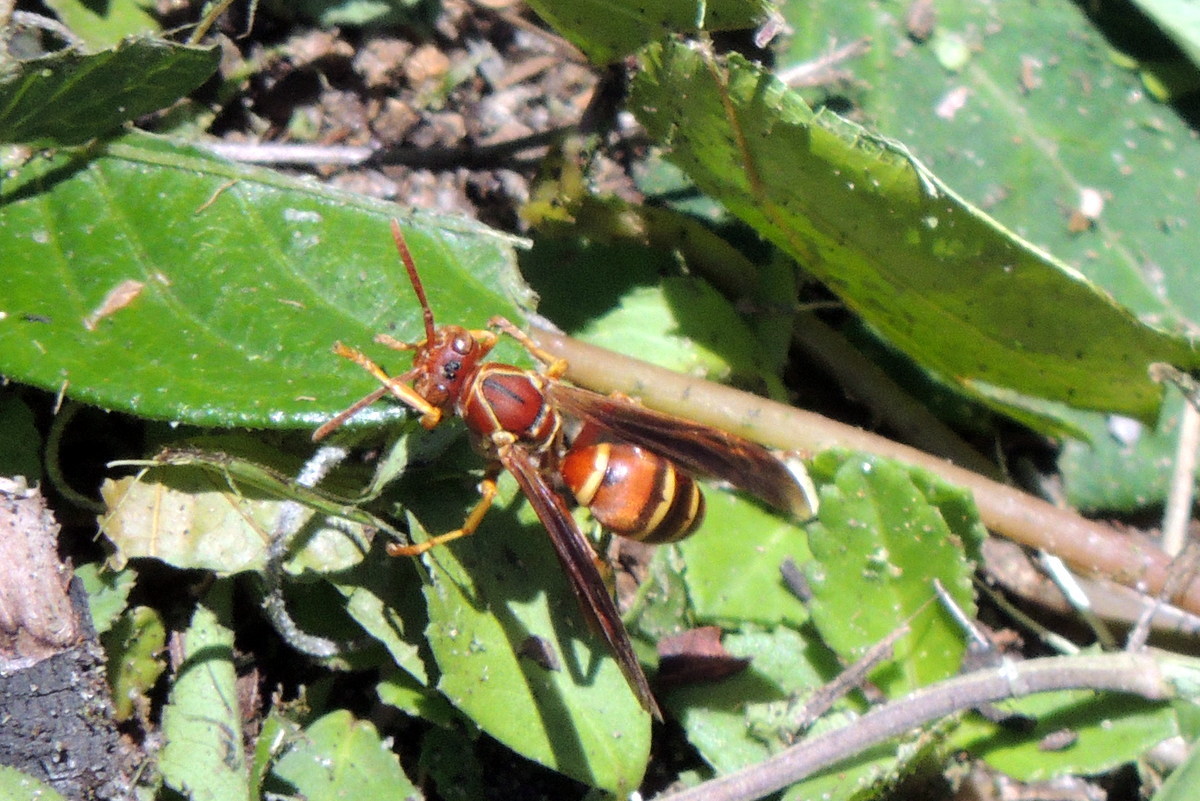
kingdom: Animalia
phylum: Arthropoda
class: Insecta
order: Hymenoptera
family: Eumenidae
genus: Polistes
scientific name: Polistes dorsalis
